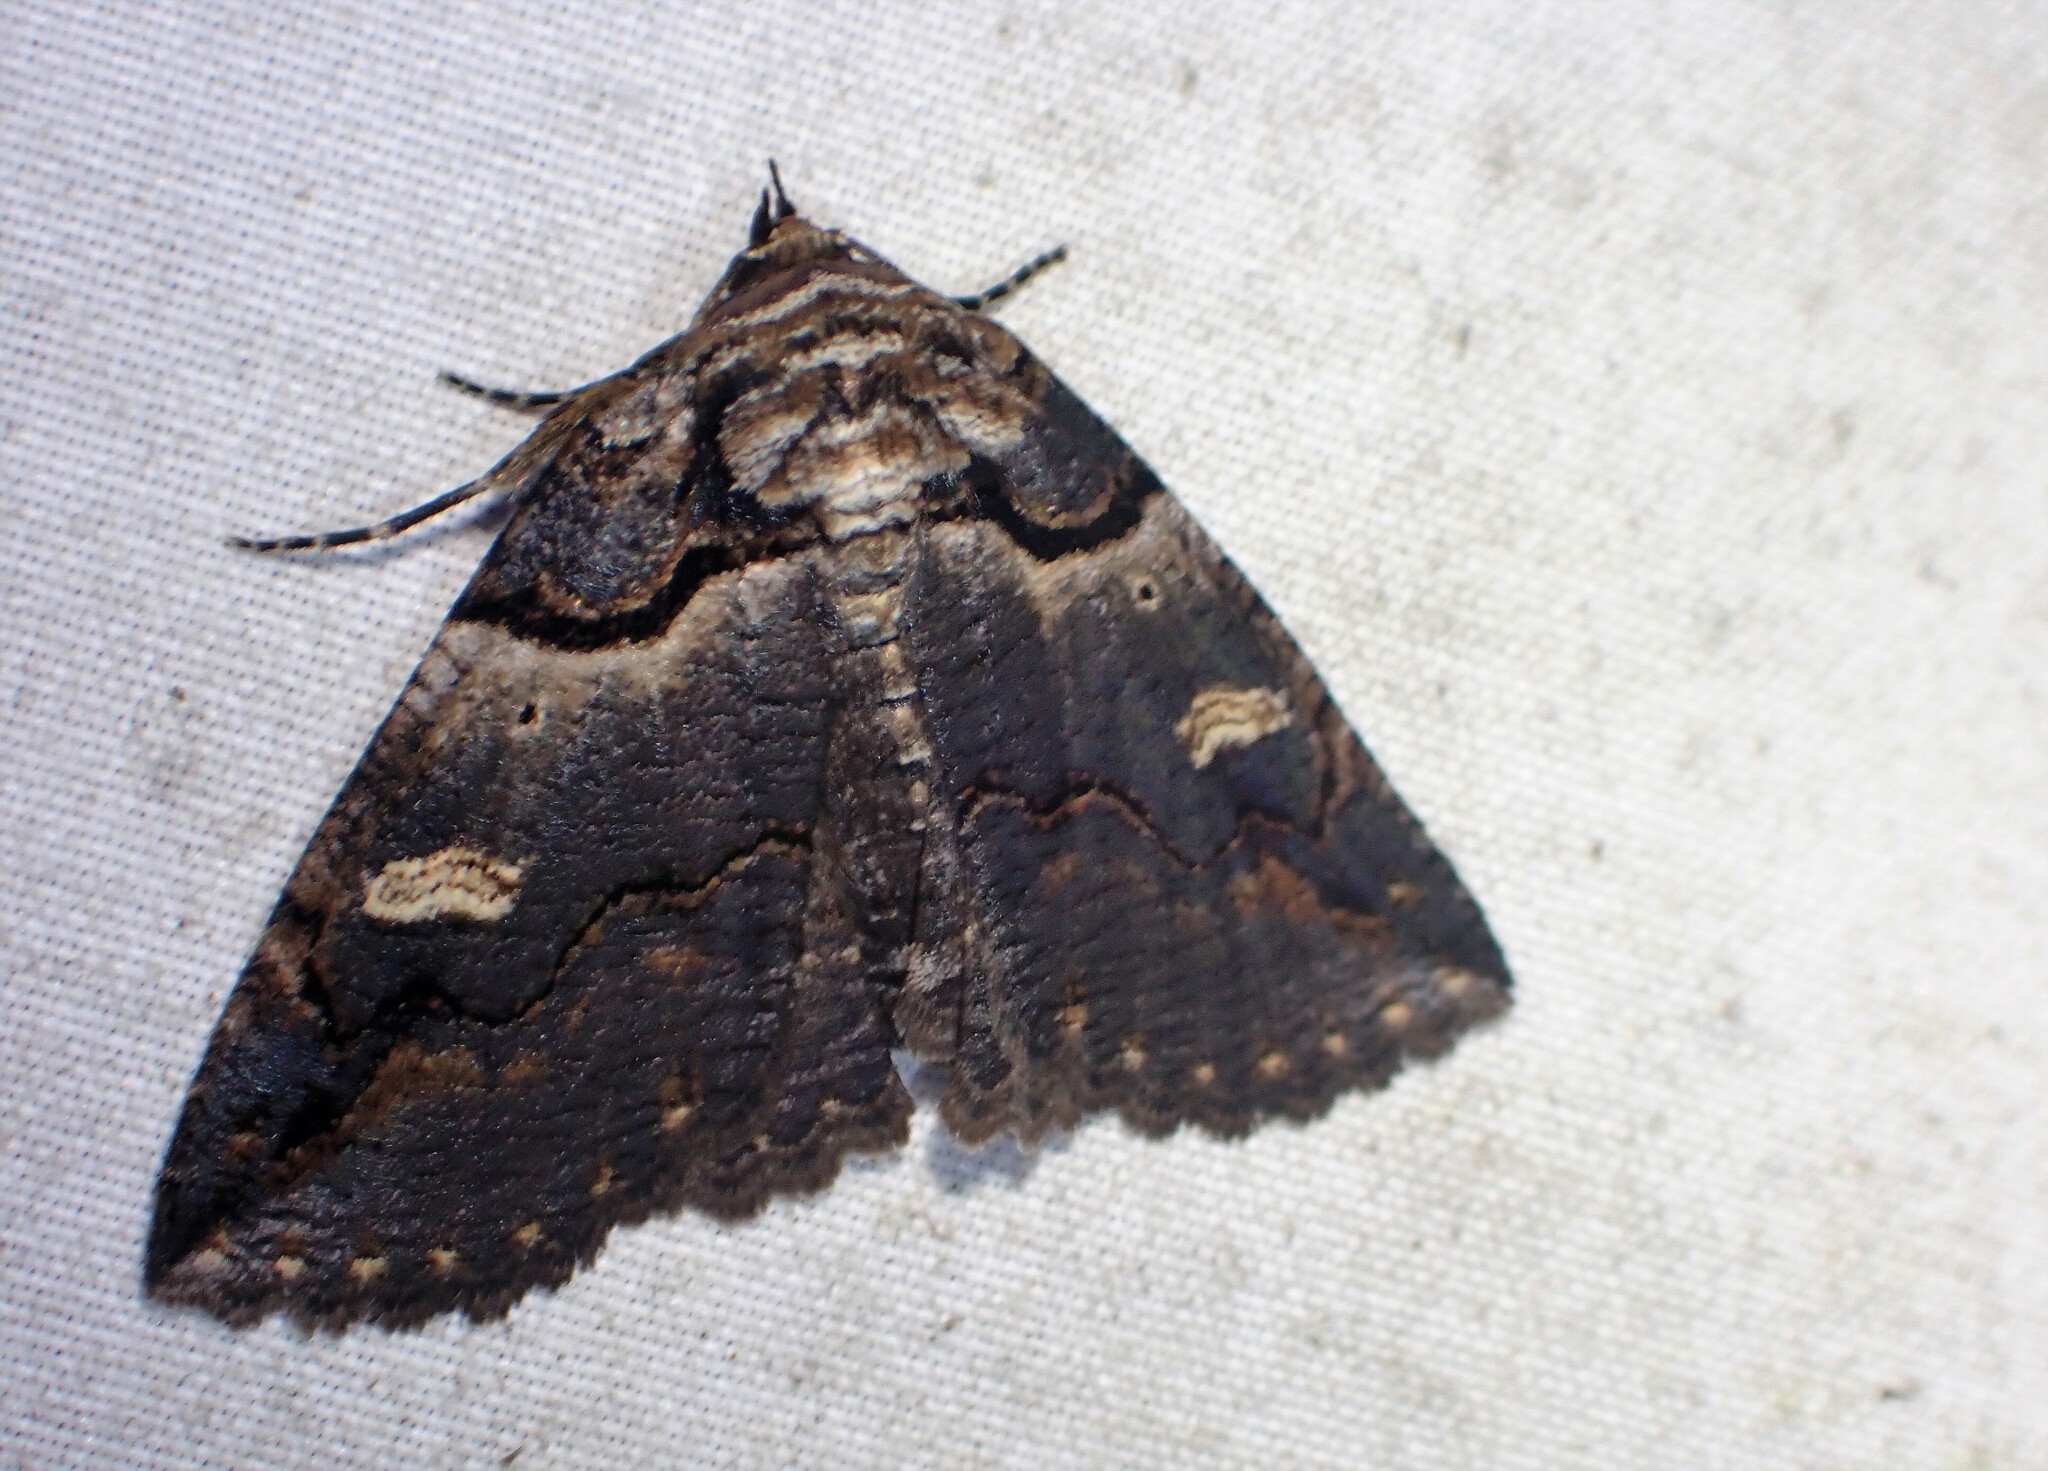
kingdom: Animalia
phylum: Arthropoda
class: Insecta
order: Lepidoptera
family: Erebidae
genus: Zale
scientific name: Zale intenta
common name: Intent zale moth
